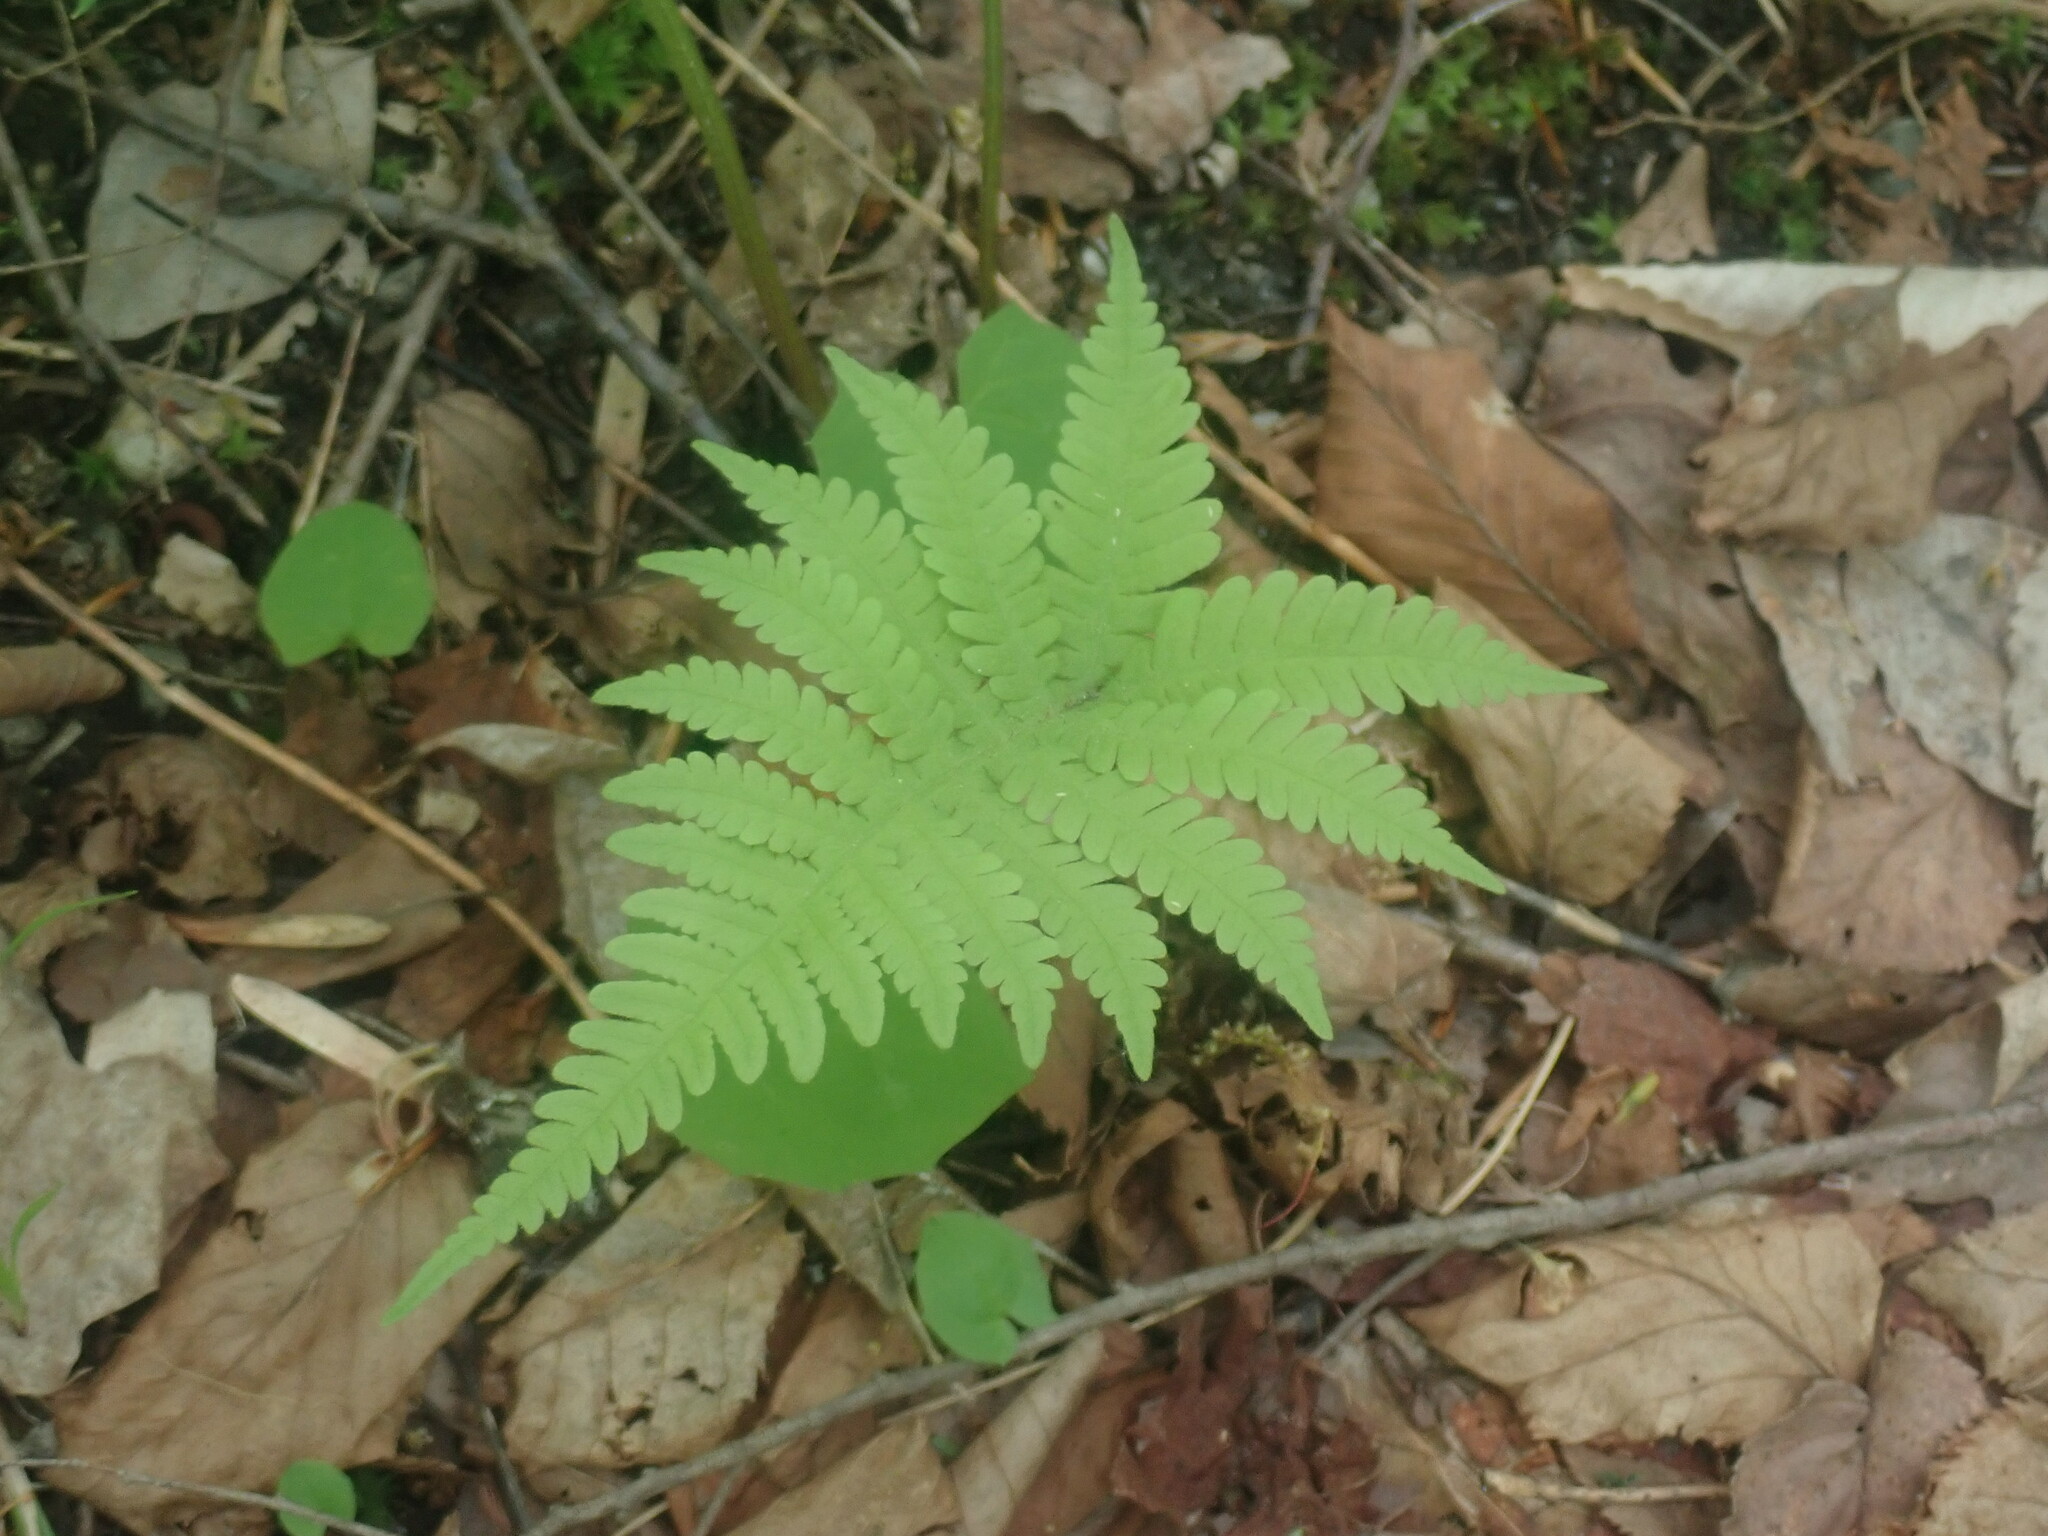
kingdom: Plantae
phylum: Tracheophyta
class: Polypodiopsida
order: Polypodiales
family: Thelypteridaceae
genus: Phegopteris
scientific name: Phegopteris connectilis
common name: Beech fern
